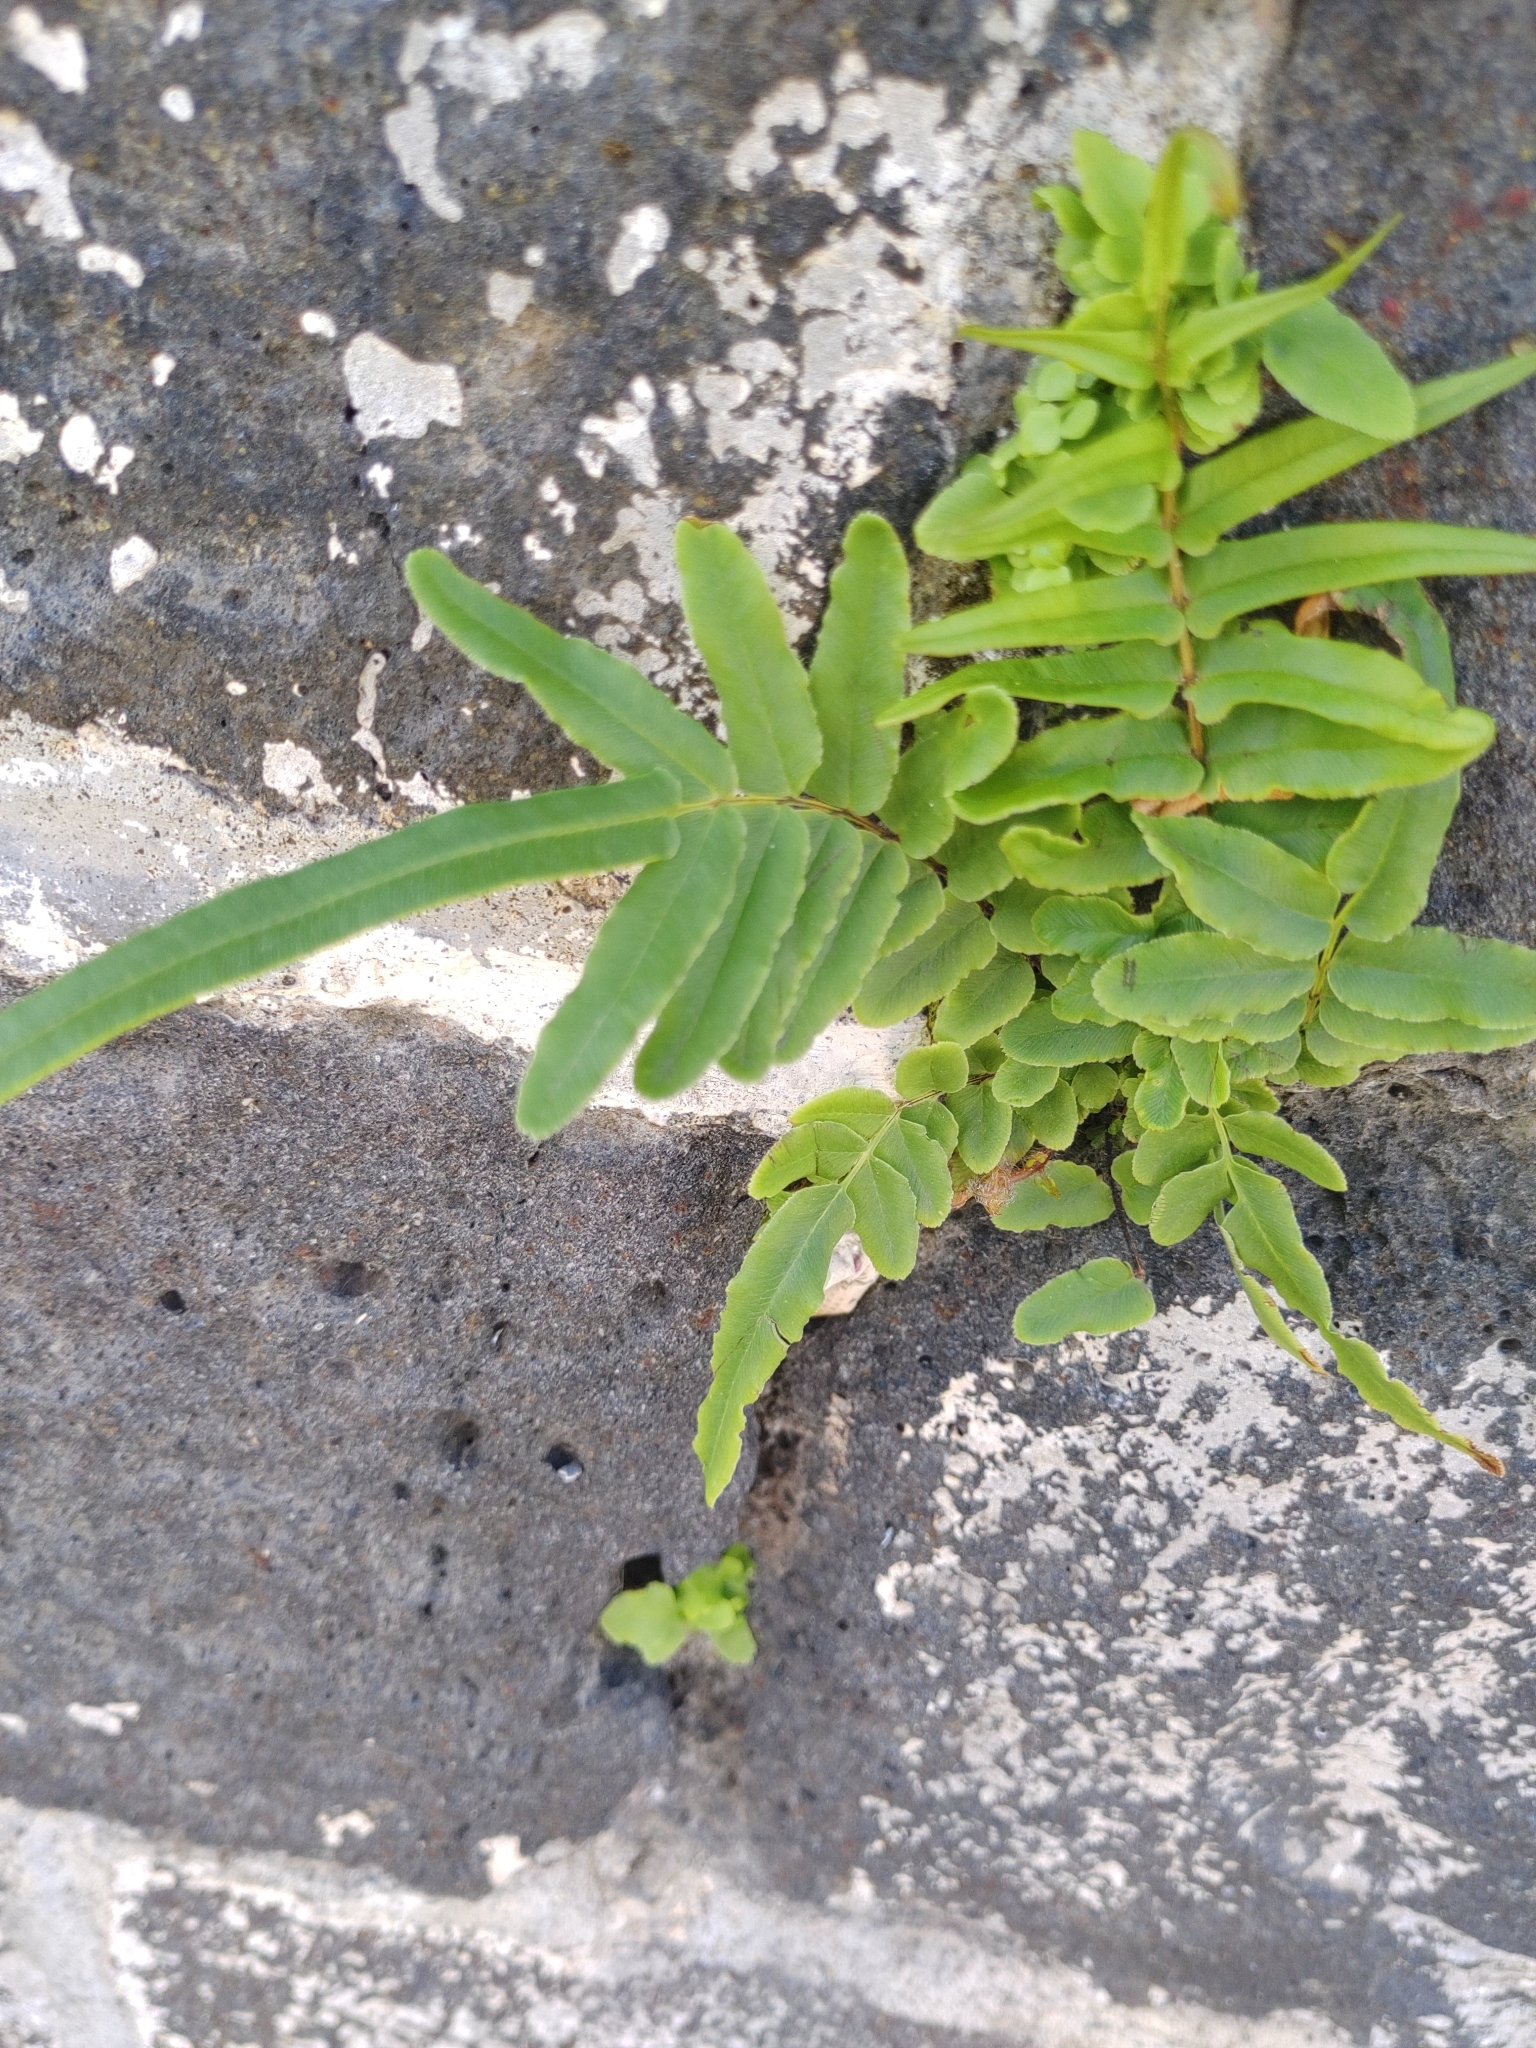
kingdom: Plantae
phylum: Tracheophyta
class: Polypodiopsida
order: Polypodiales
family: Pteridaceae
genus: Pteris
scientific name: Pteris vittata
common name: Ladder brake
